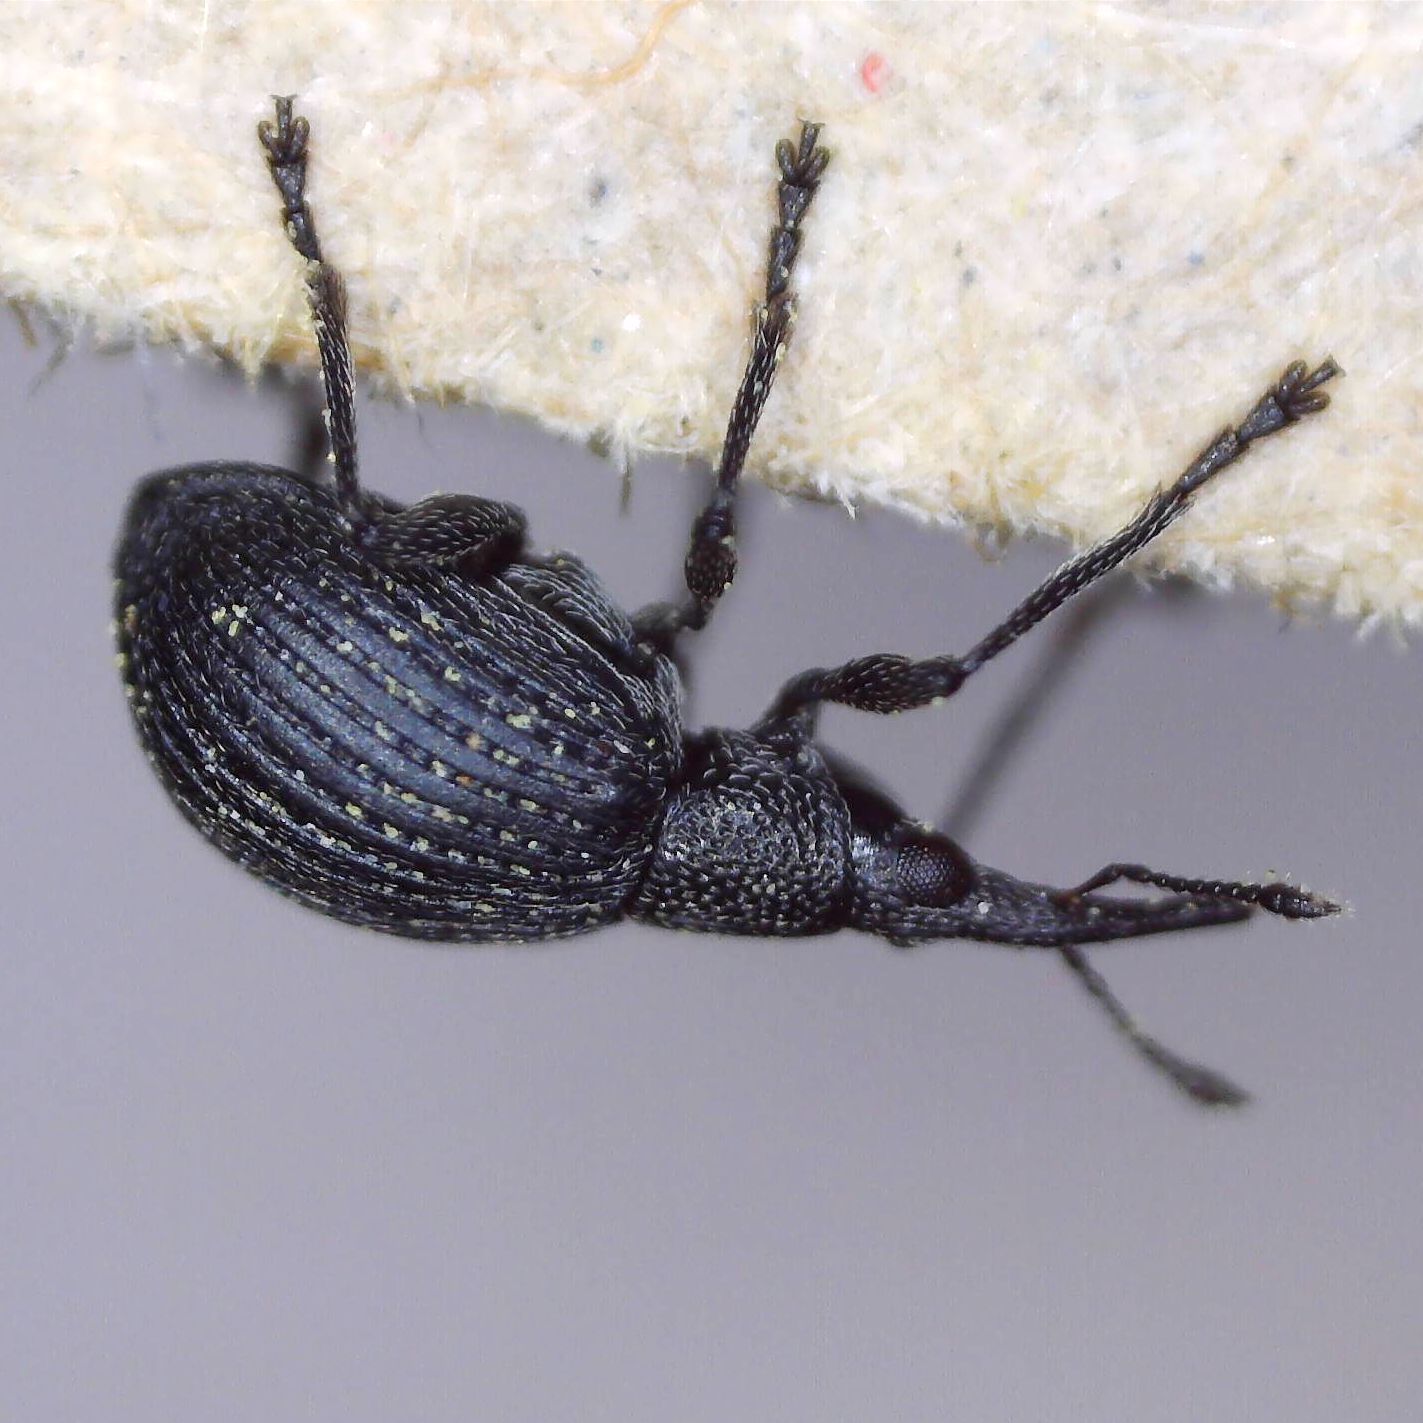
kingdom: Animalia
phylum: Arthropoda
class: Insecta
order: Coleoptera
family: Apionidae
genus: Oxystoma
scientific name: Oxystoma subulatum
